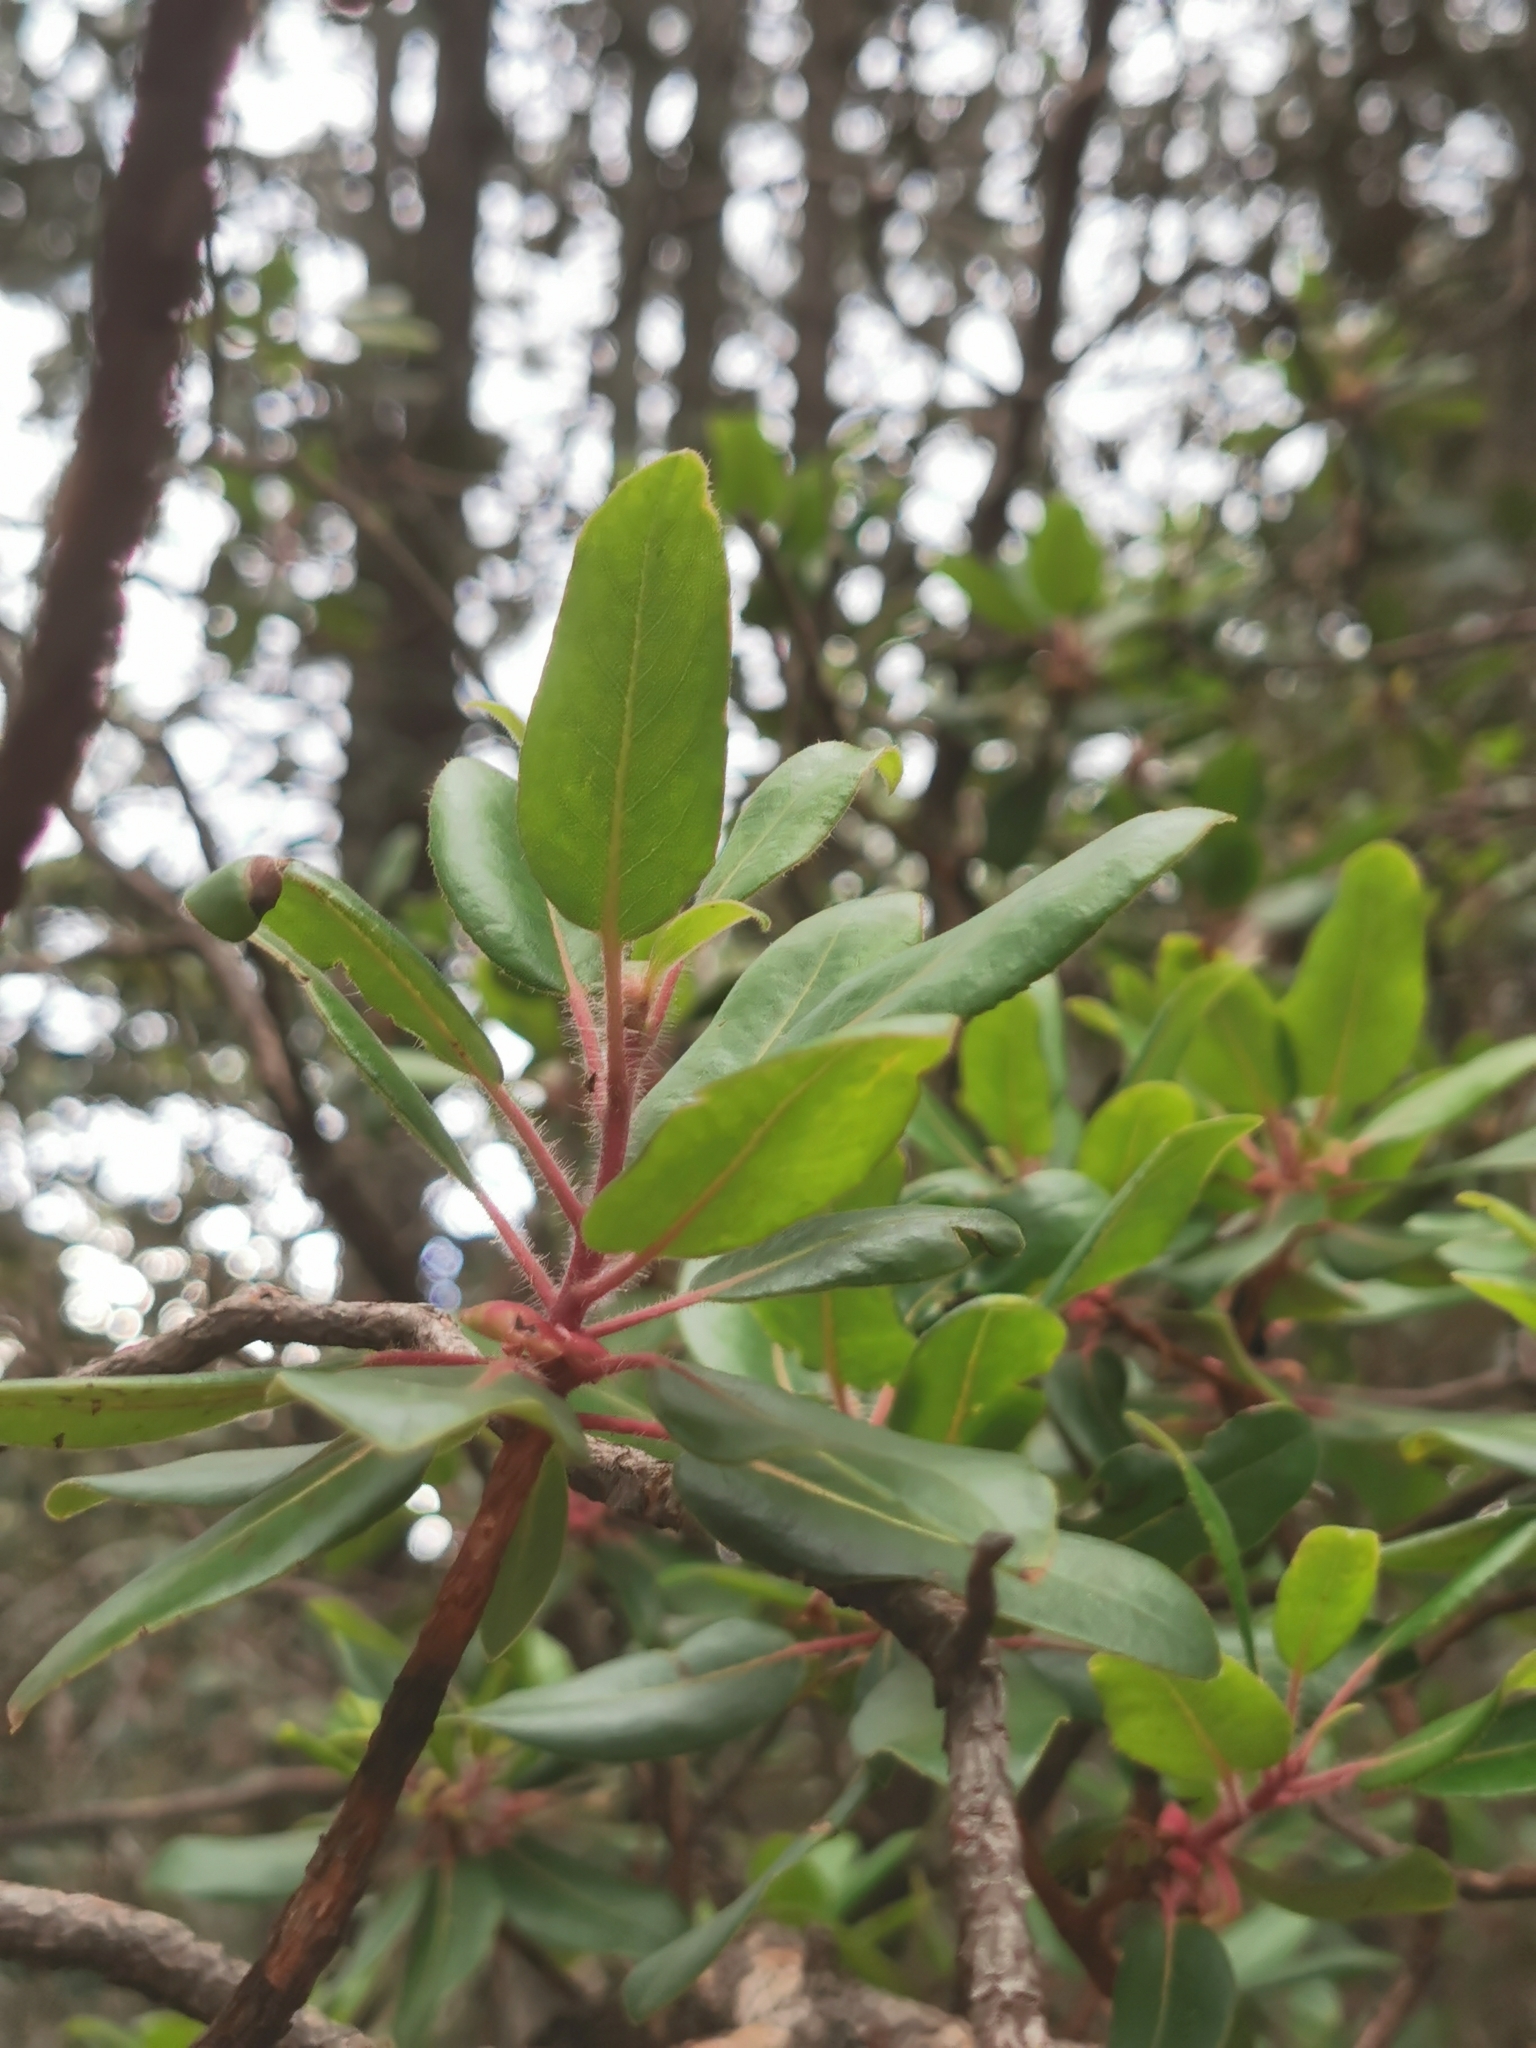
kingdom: Plantae
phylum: Tracheophyta
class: Magnoliopsida
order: Ericales
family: Ericaceae
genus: Arbutus
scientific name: Arbutus tessellata
